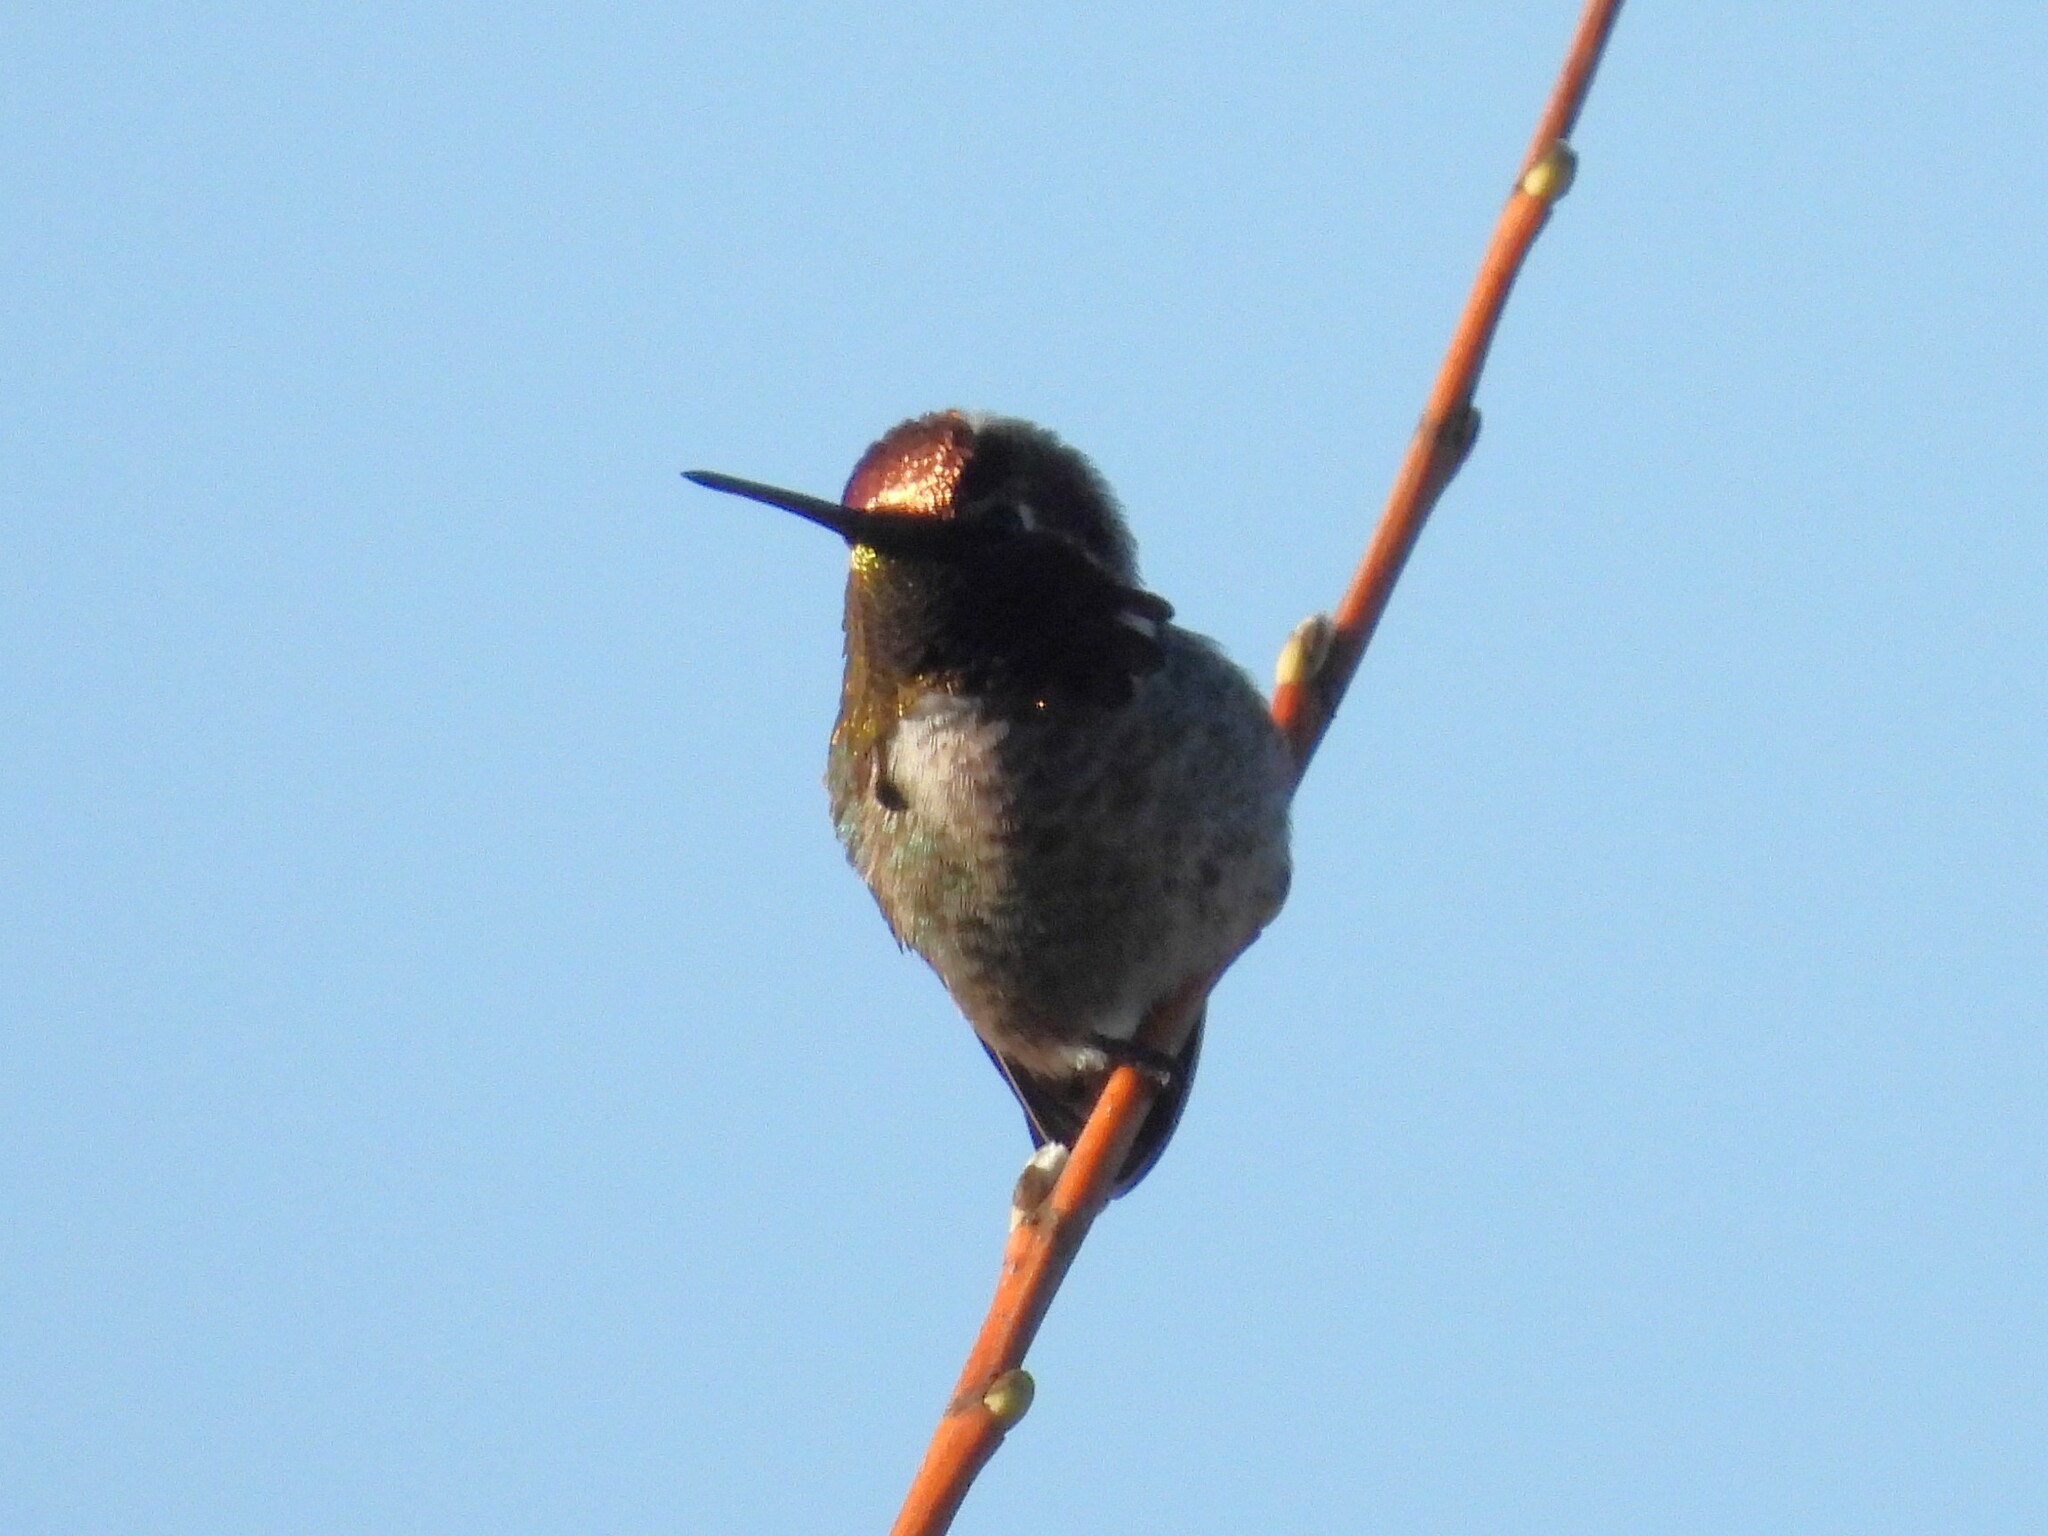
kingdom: Animalia
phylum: Chordata
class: Aves
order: Apodiformes
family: Trochilidae
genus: Calypte
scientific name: Calypte anna
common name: Anna's hummingbird
